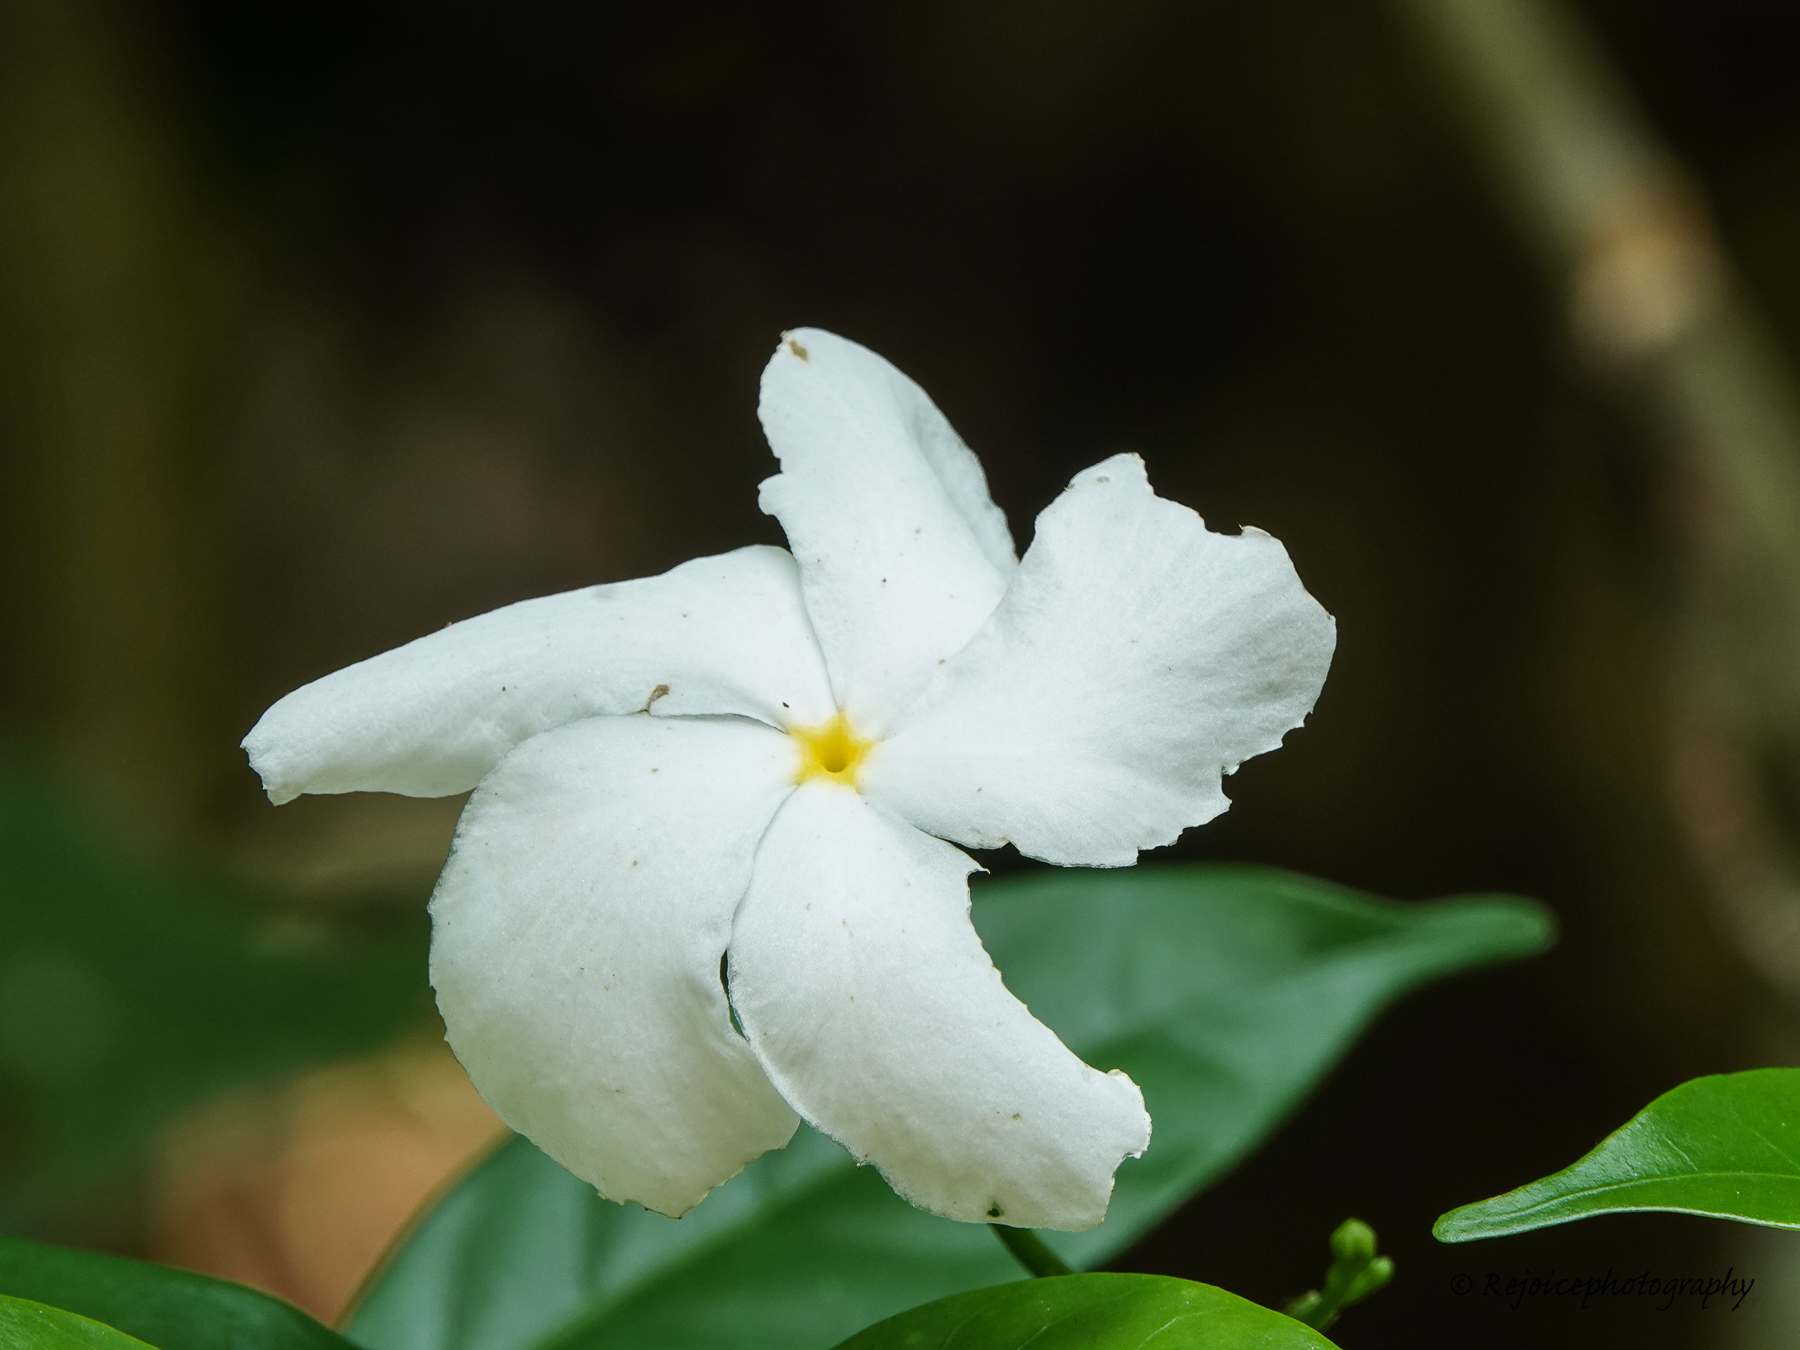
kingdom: Plantae
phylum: Tracheophyta
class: Magnoliopsida
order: Gentianales
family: Apocynaceae
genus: Tabernaemontana
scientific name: Tabernaemontana divaricata
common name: Pinwheelflower
